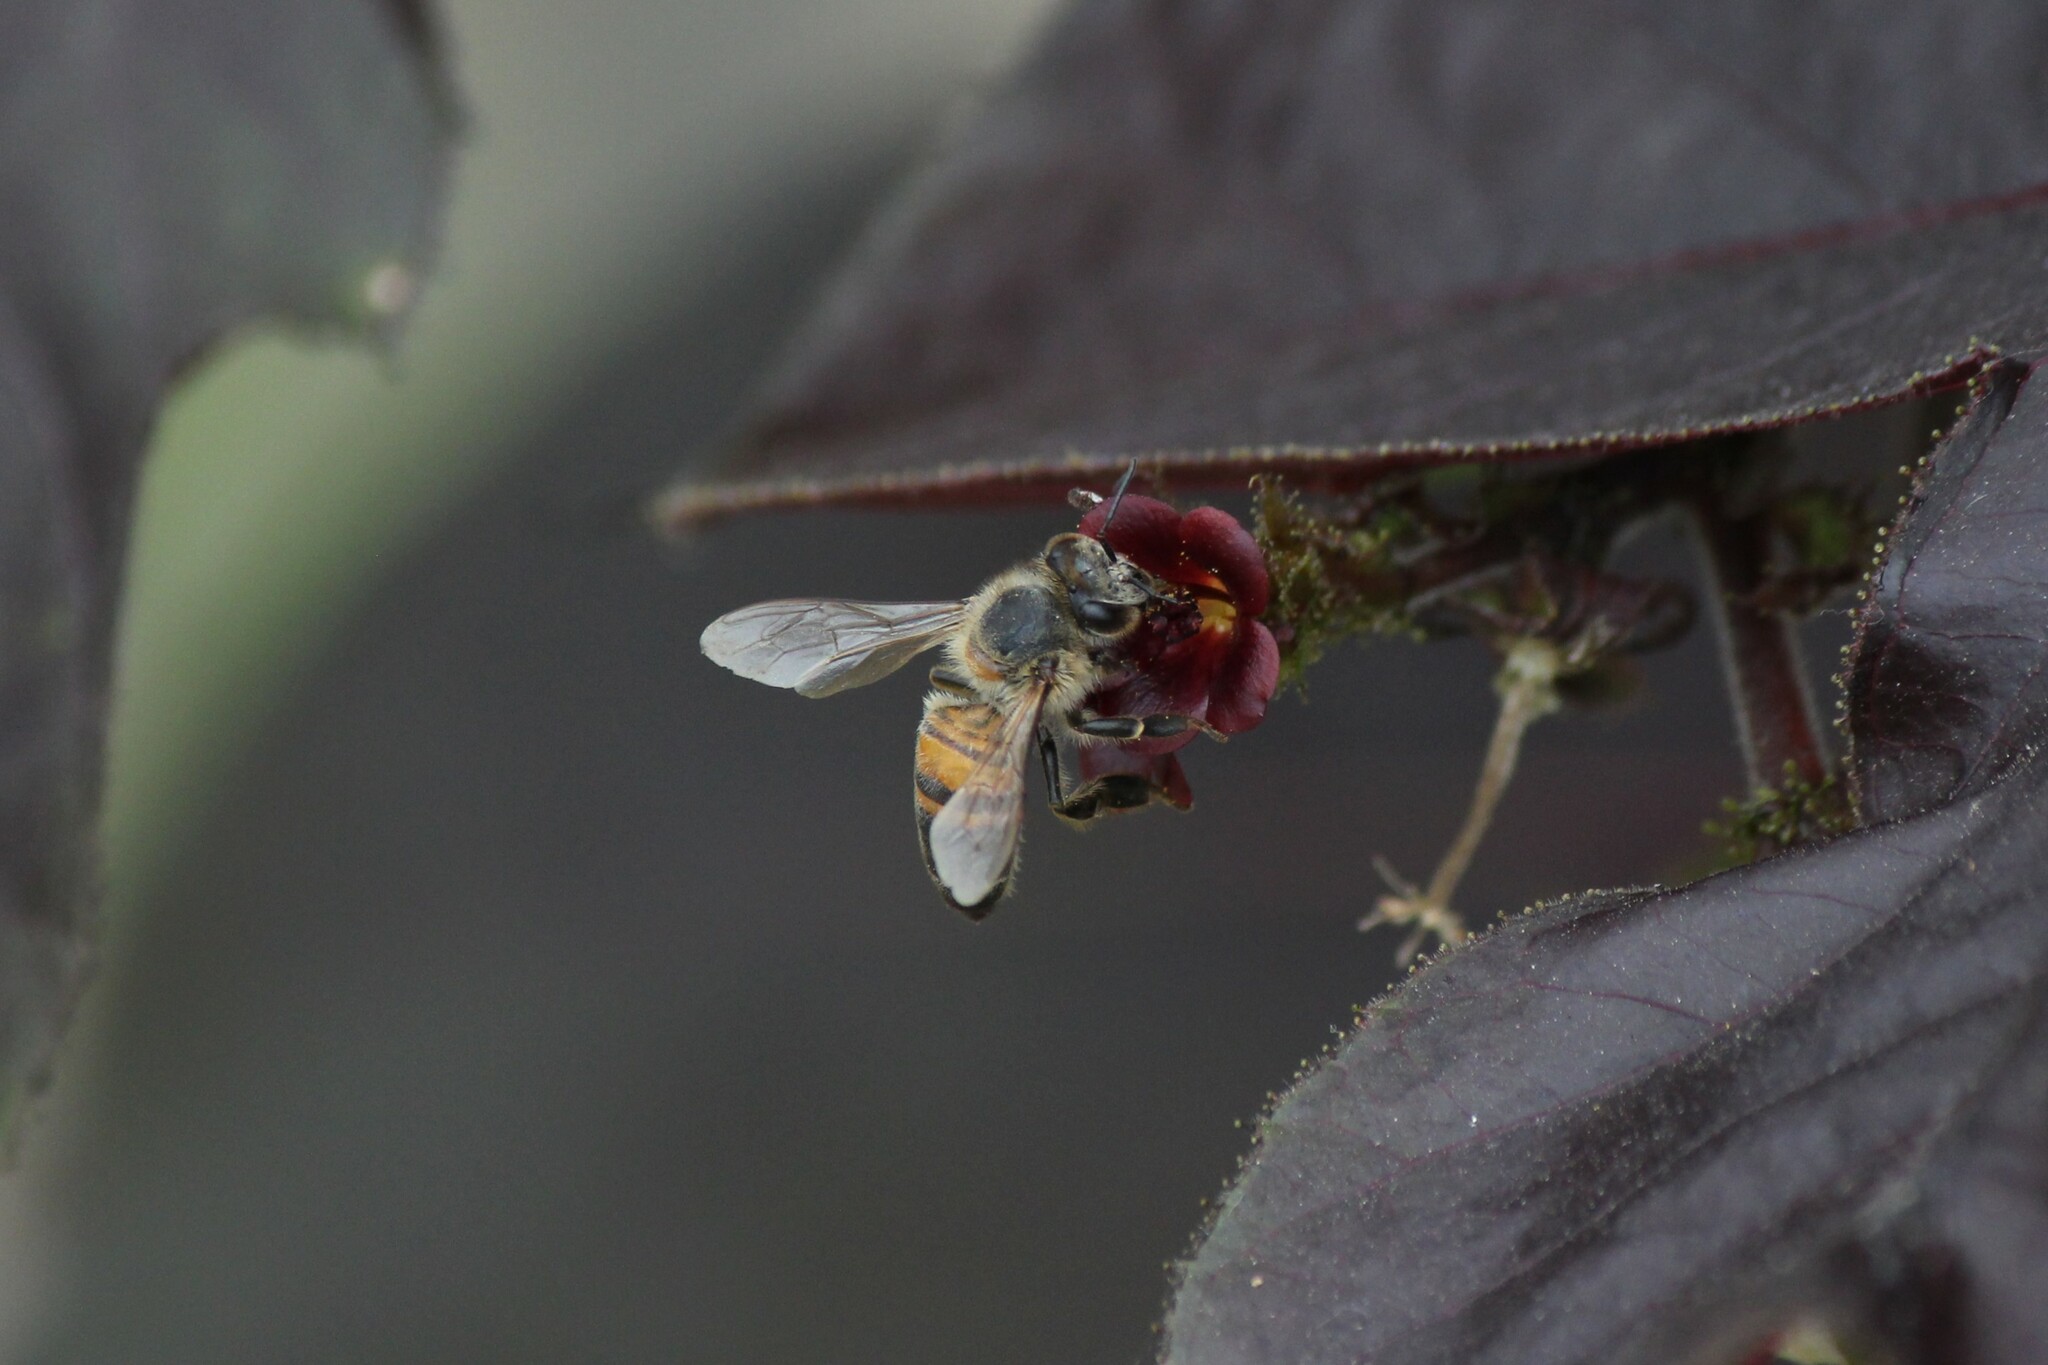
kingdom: Animalia
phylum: Arthropoda
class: Insecta
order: Hymenoptera
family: Apidae
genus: Apis
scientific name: Apis mellifera
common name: Honey bee
